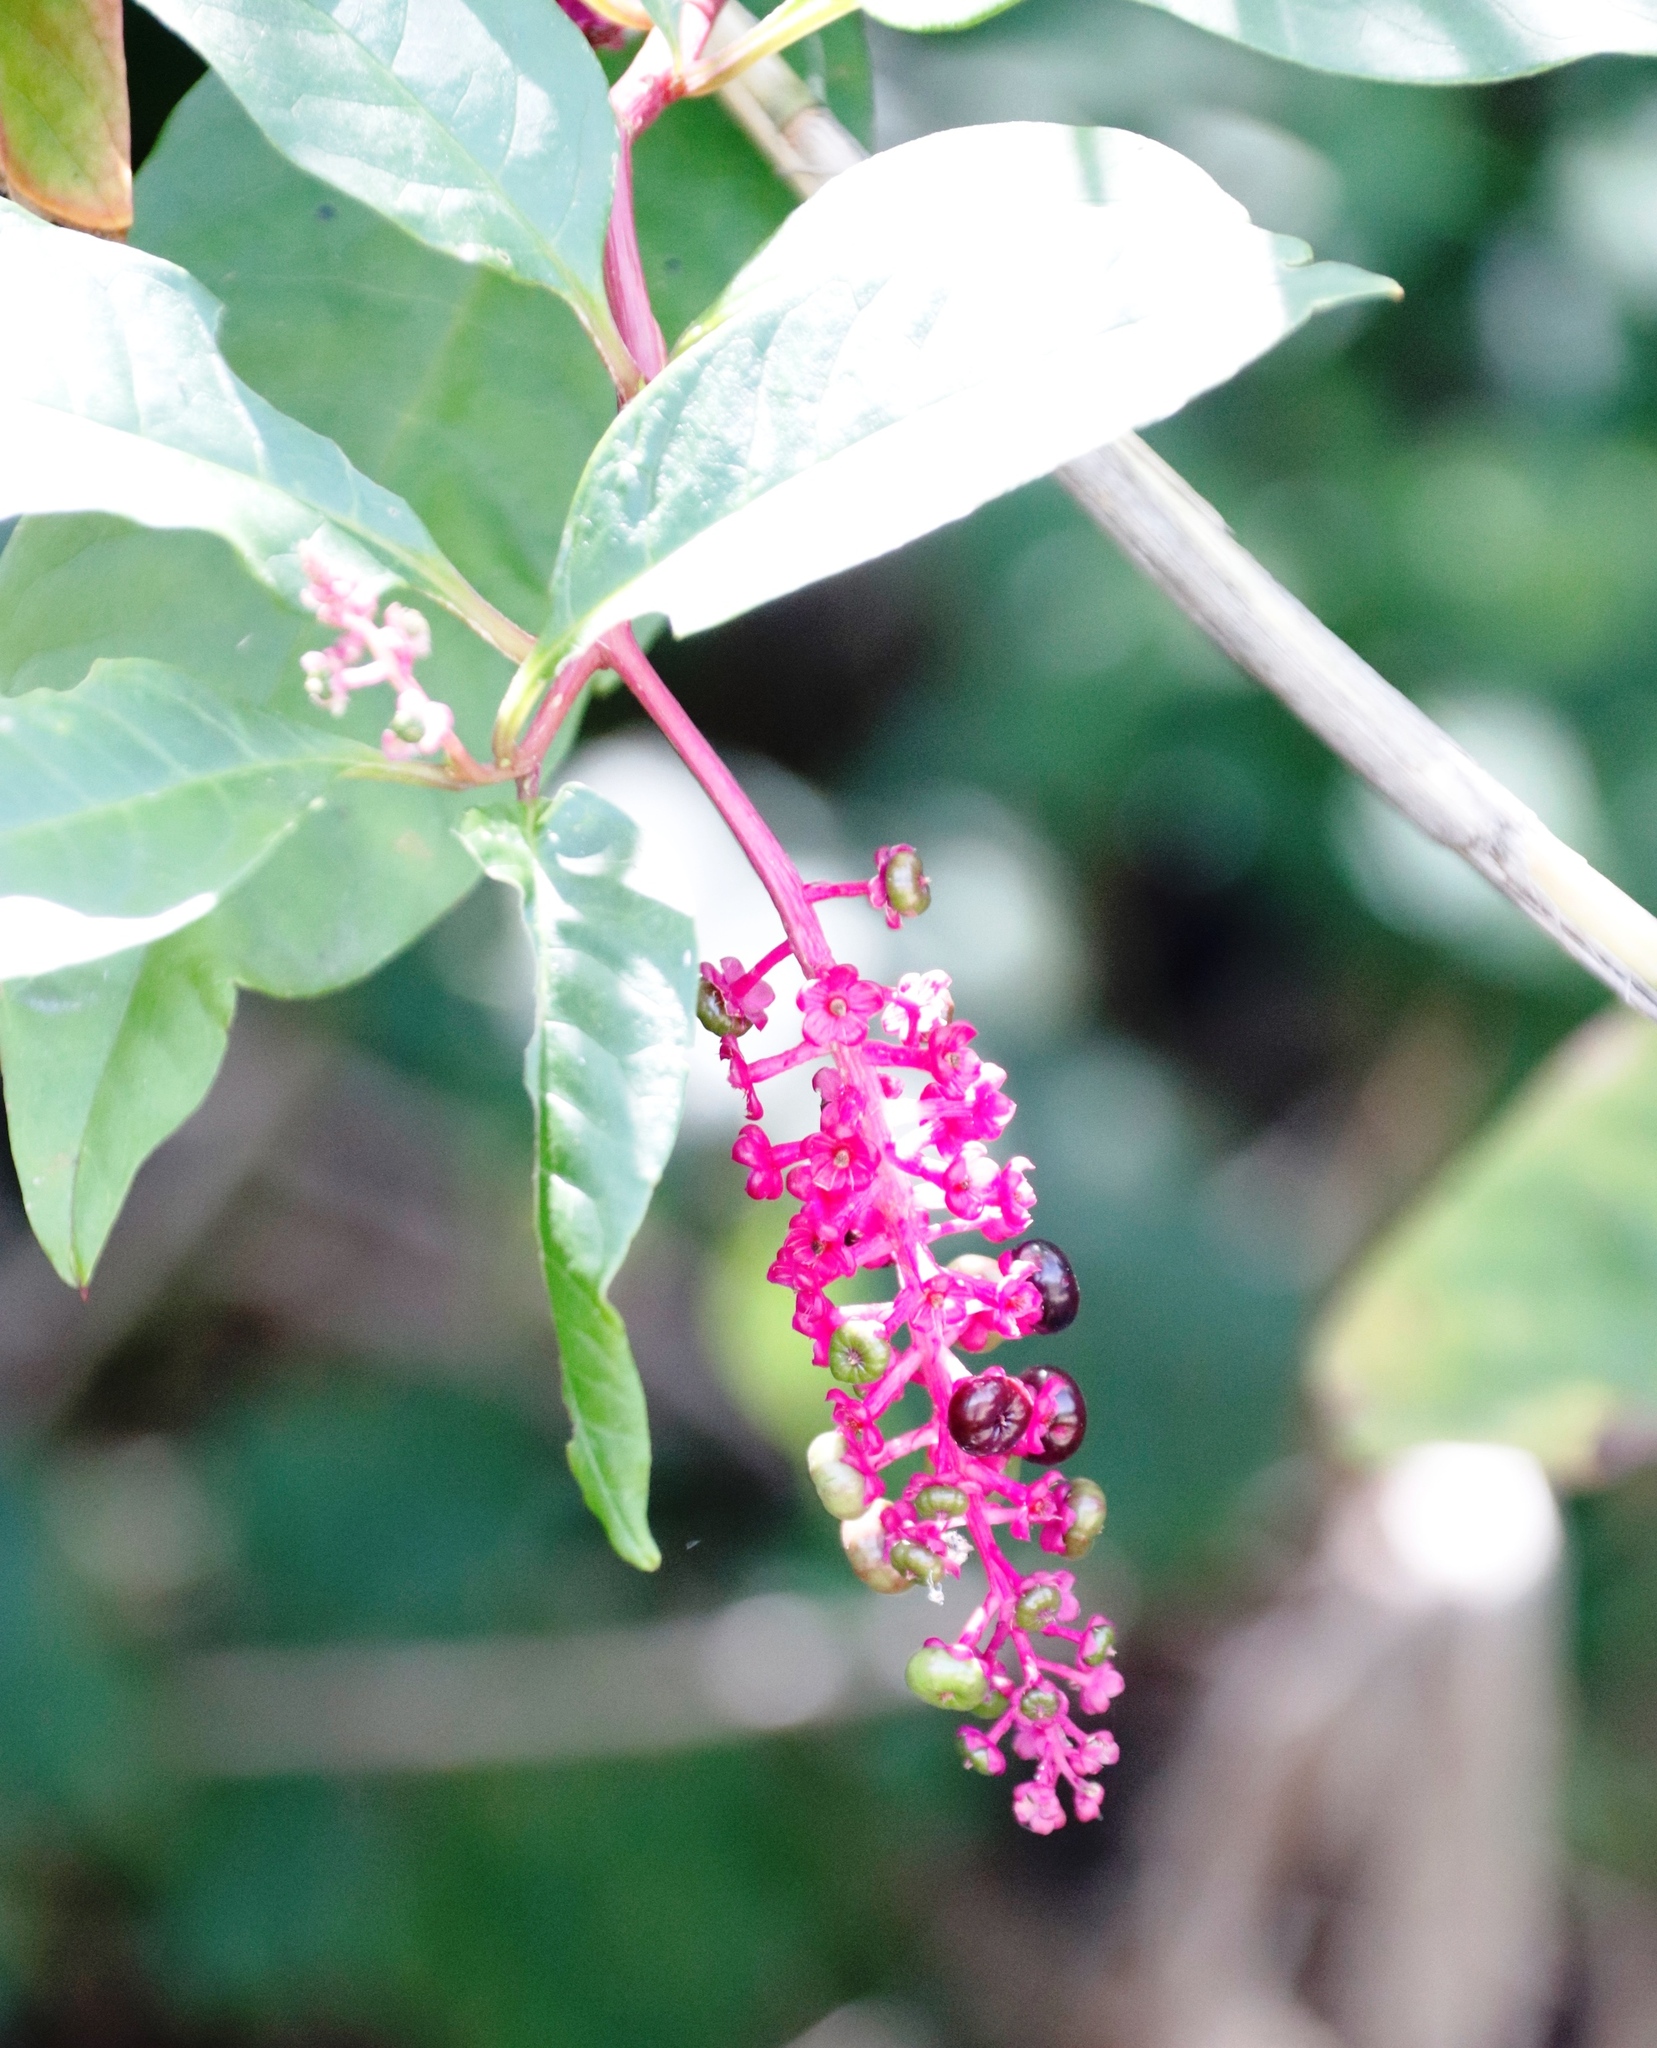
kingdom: Plantae
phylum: Tracheophyta
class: Magnoliopsida
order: Caryophyllales
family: Phytolaccaceae
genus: Phytolacca
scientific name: Phytolacca americana
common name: American pokeweed
